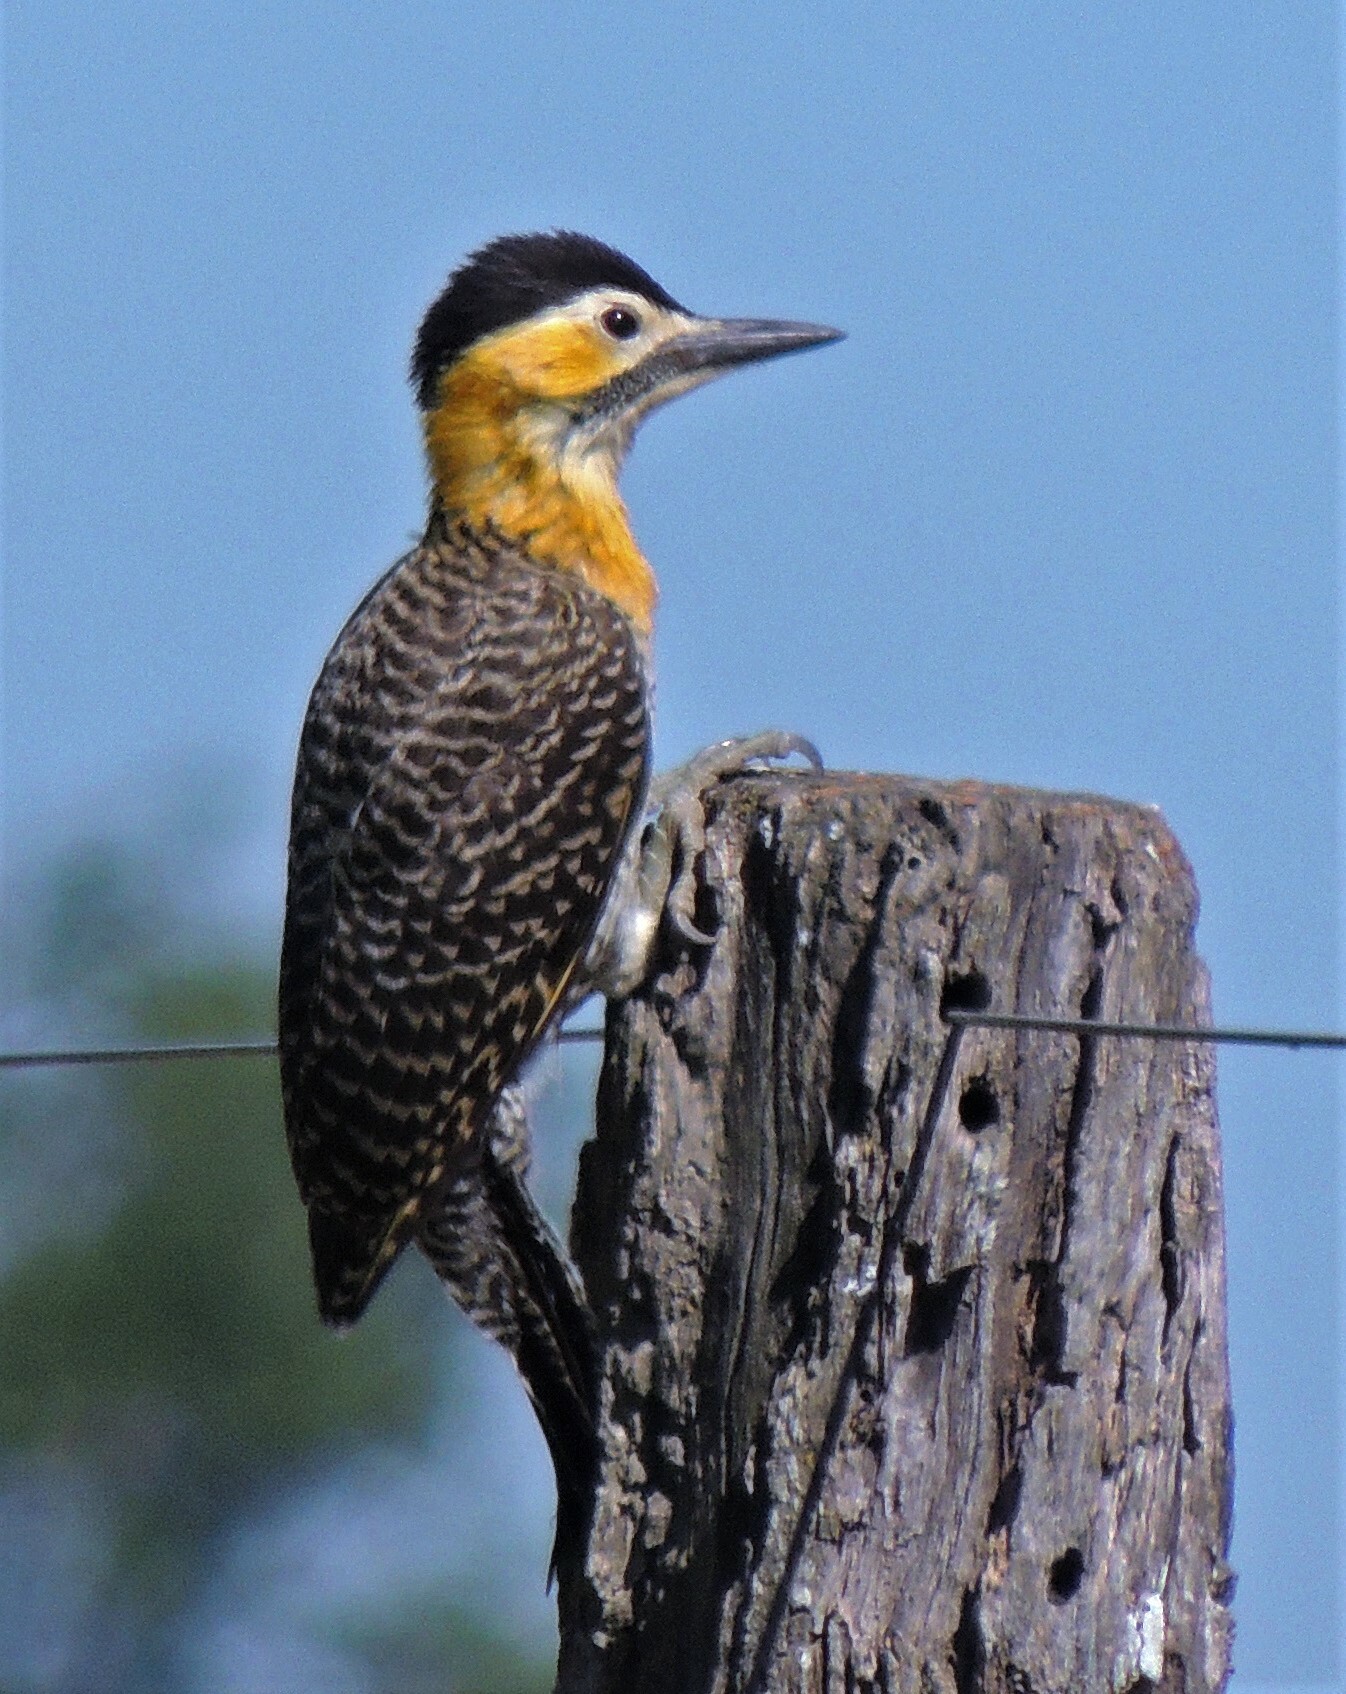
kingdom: Animalia
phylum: Chordata
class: Aves
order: Piciformes
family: Picidae
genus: Colaptes
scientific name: Colaptes campestris
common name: Campo flicker
